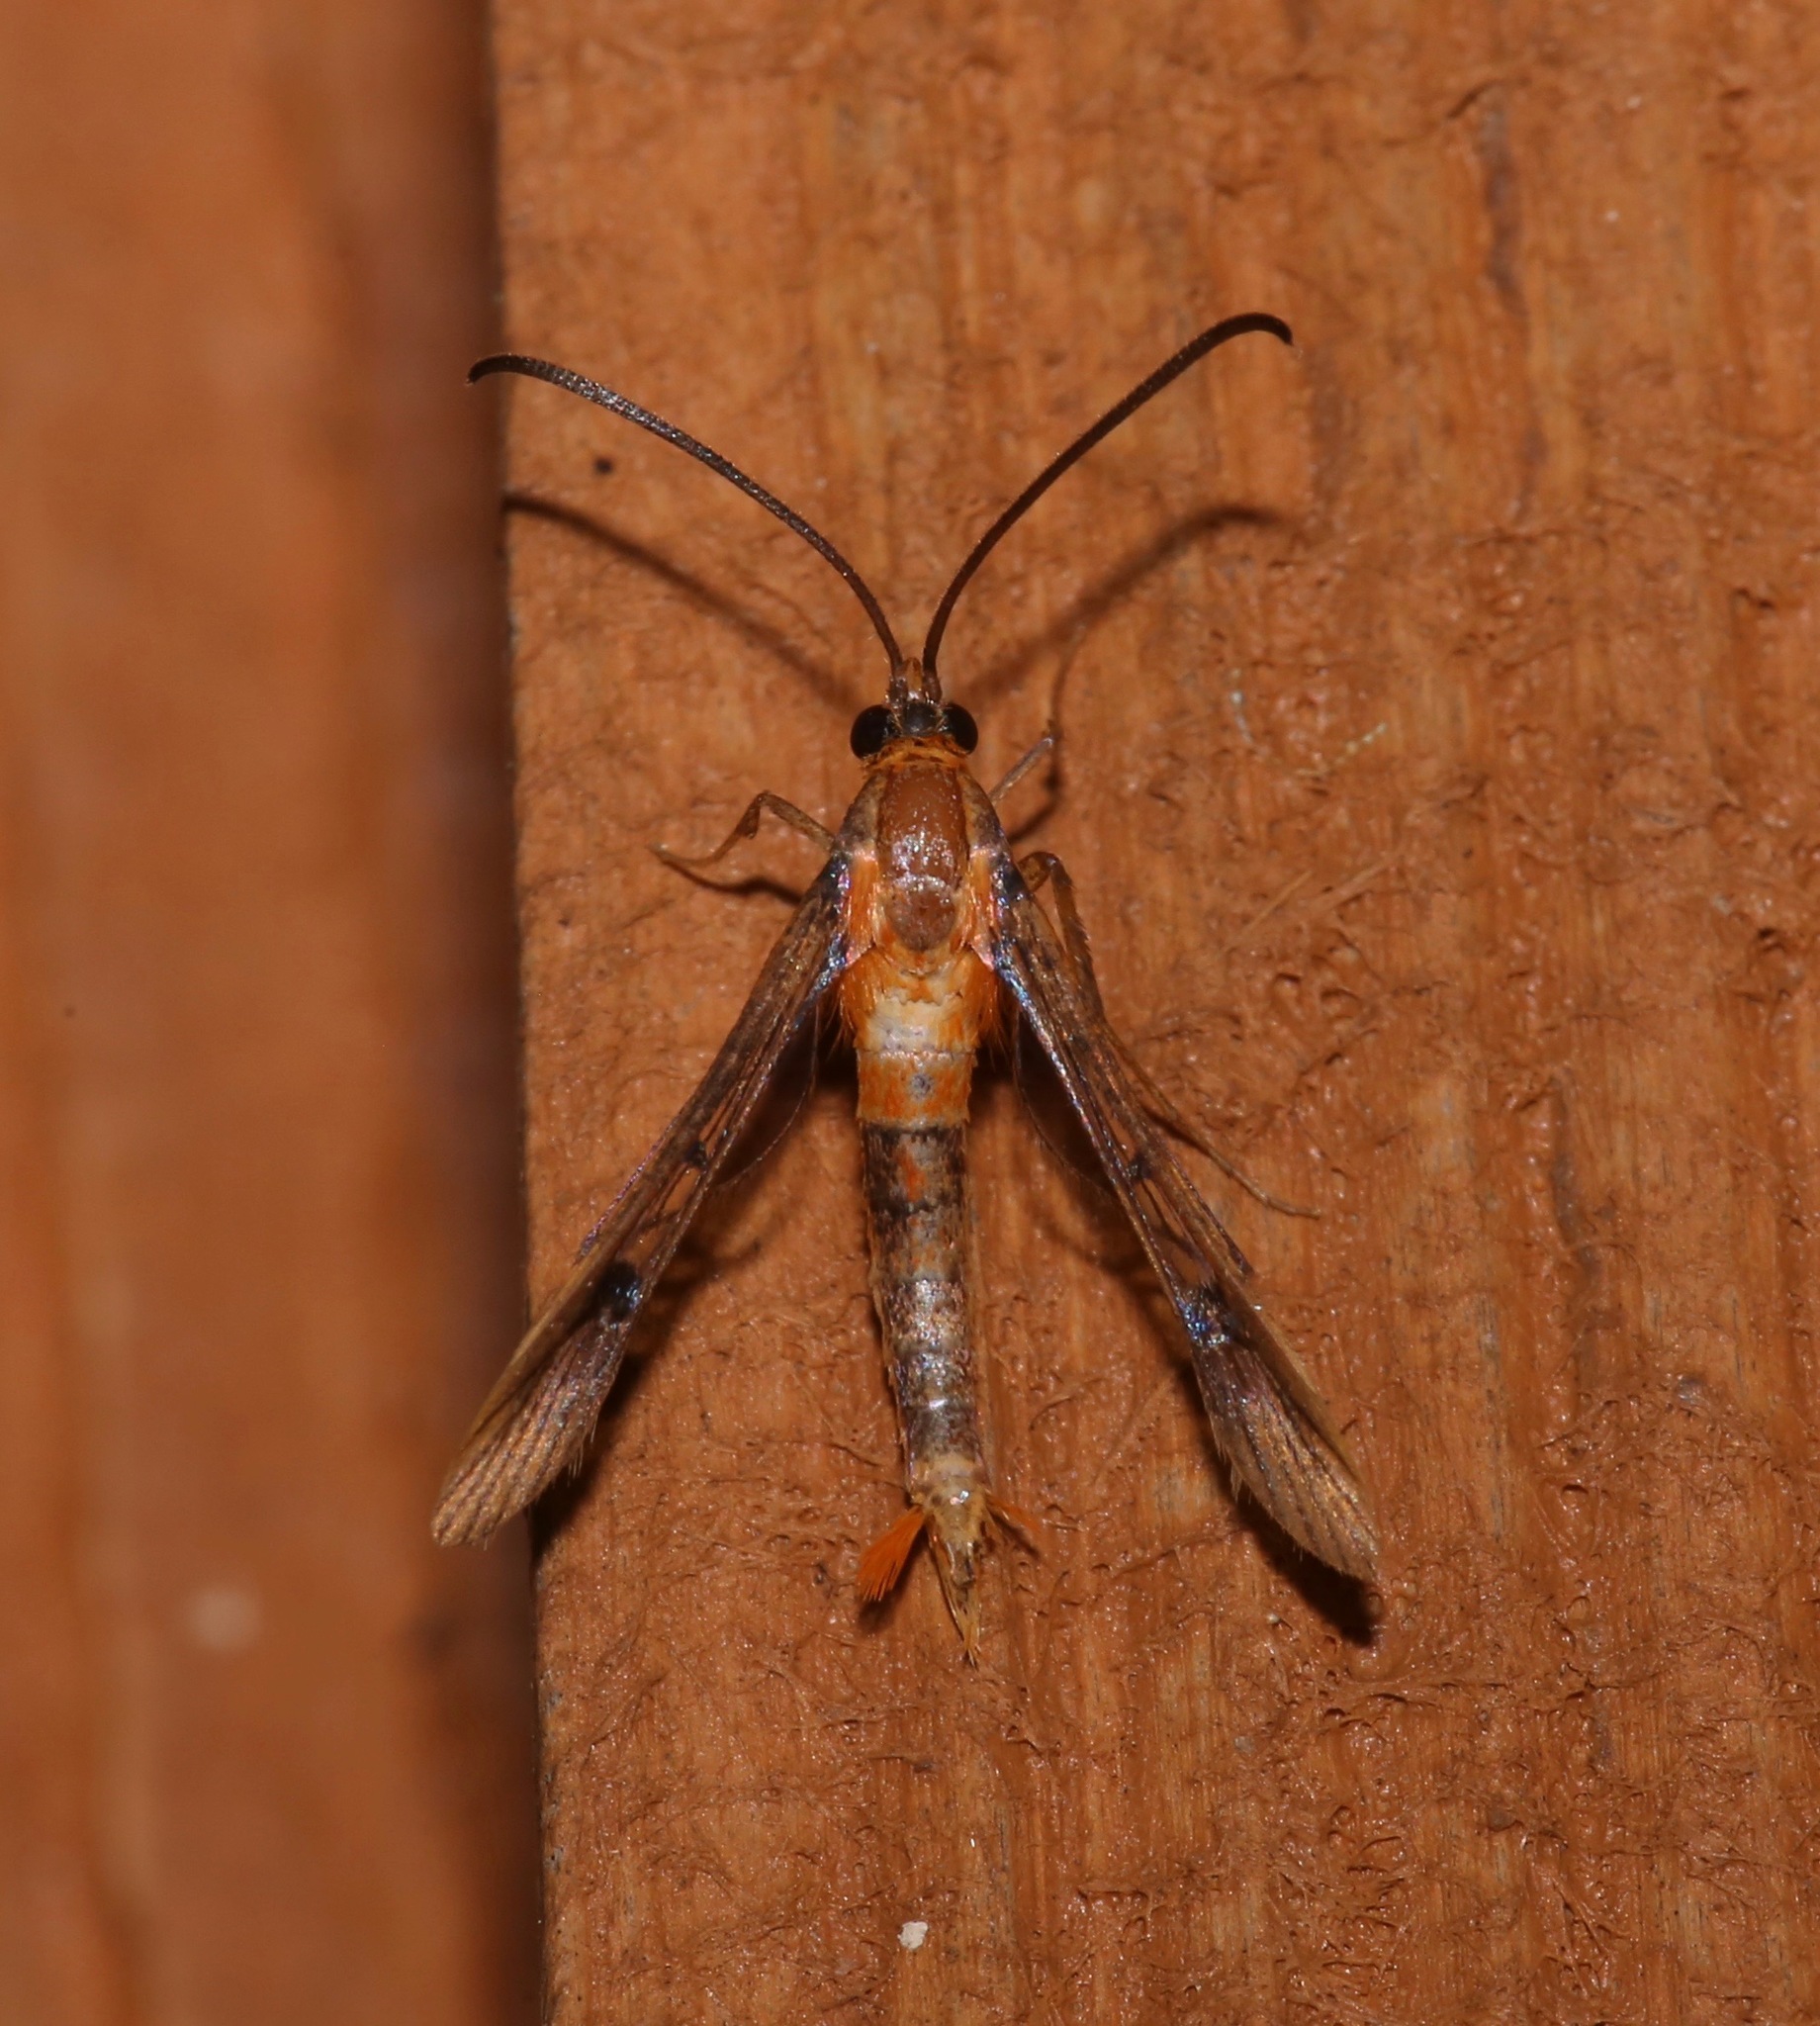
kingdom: Animalia
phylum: Arthropoda
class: Insecta
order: Lepidoptera
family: Sesiidae
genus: Synanthedon
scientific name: Synanthedon acerni
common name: Maple callus borer moth
